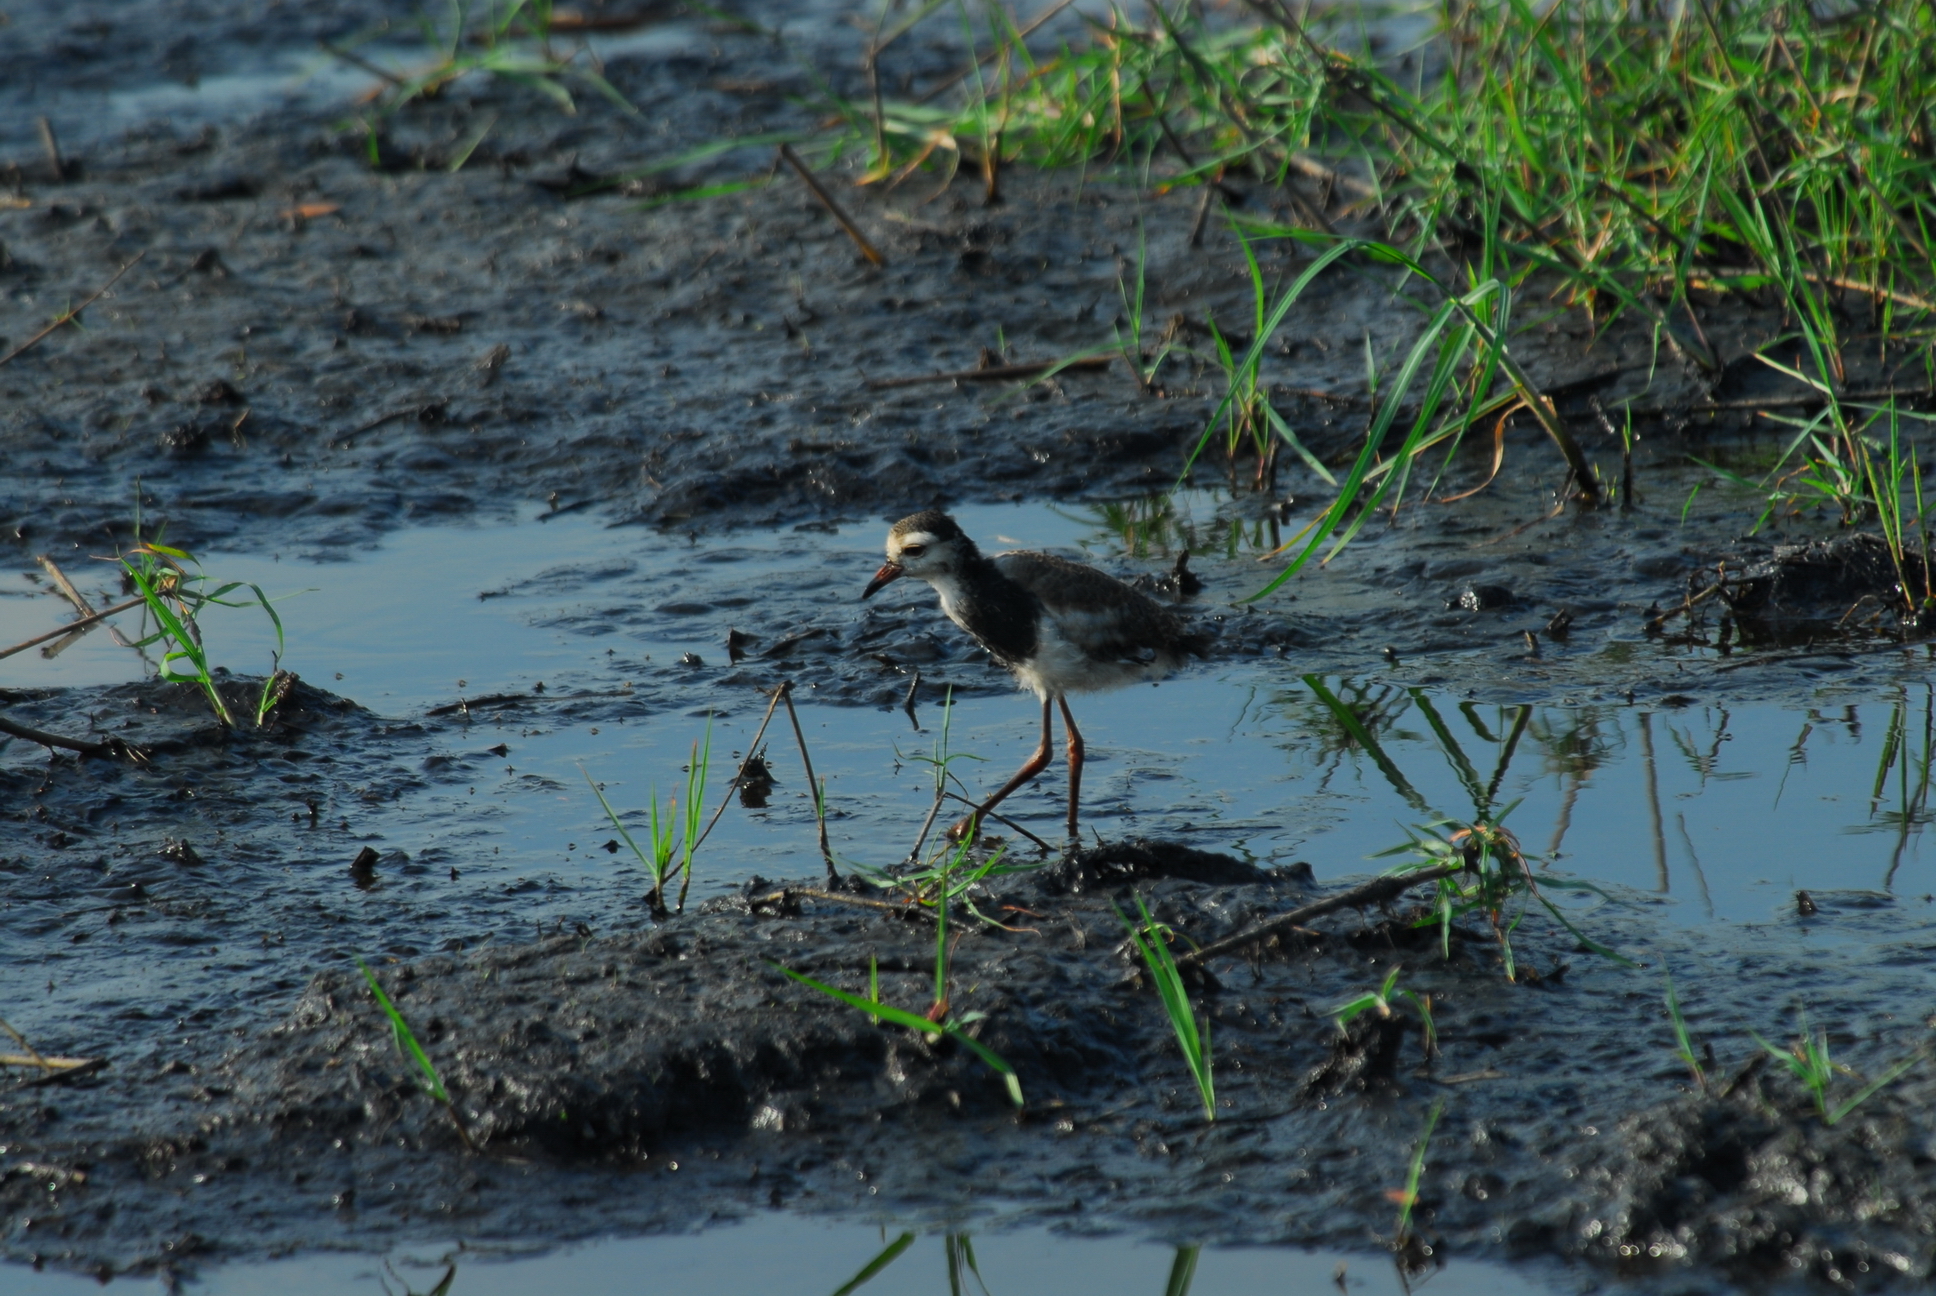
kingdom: Animalia
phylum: Chordata
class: Aves
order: Charadriiformes
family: Charadriidae
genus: Vanellus
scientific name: Vanellus crassirostris
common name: Long-toed lapwing
